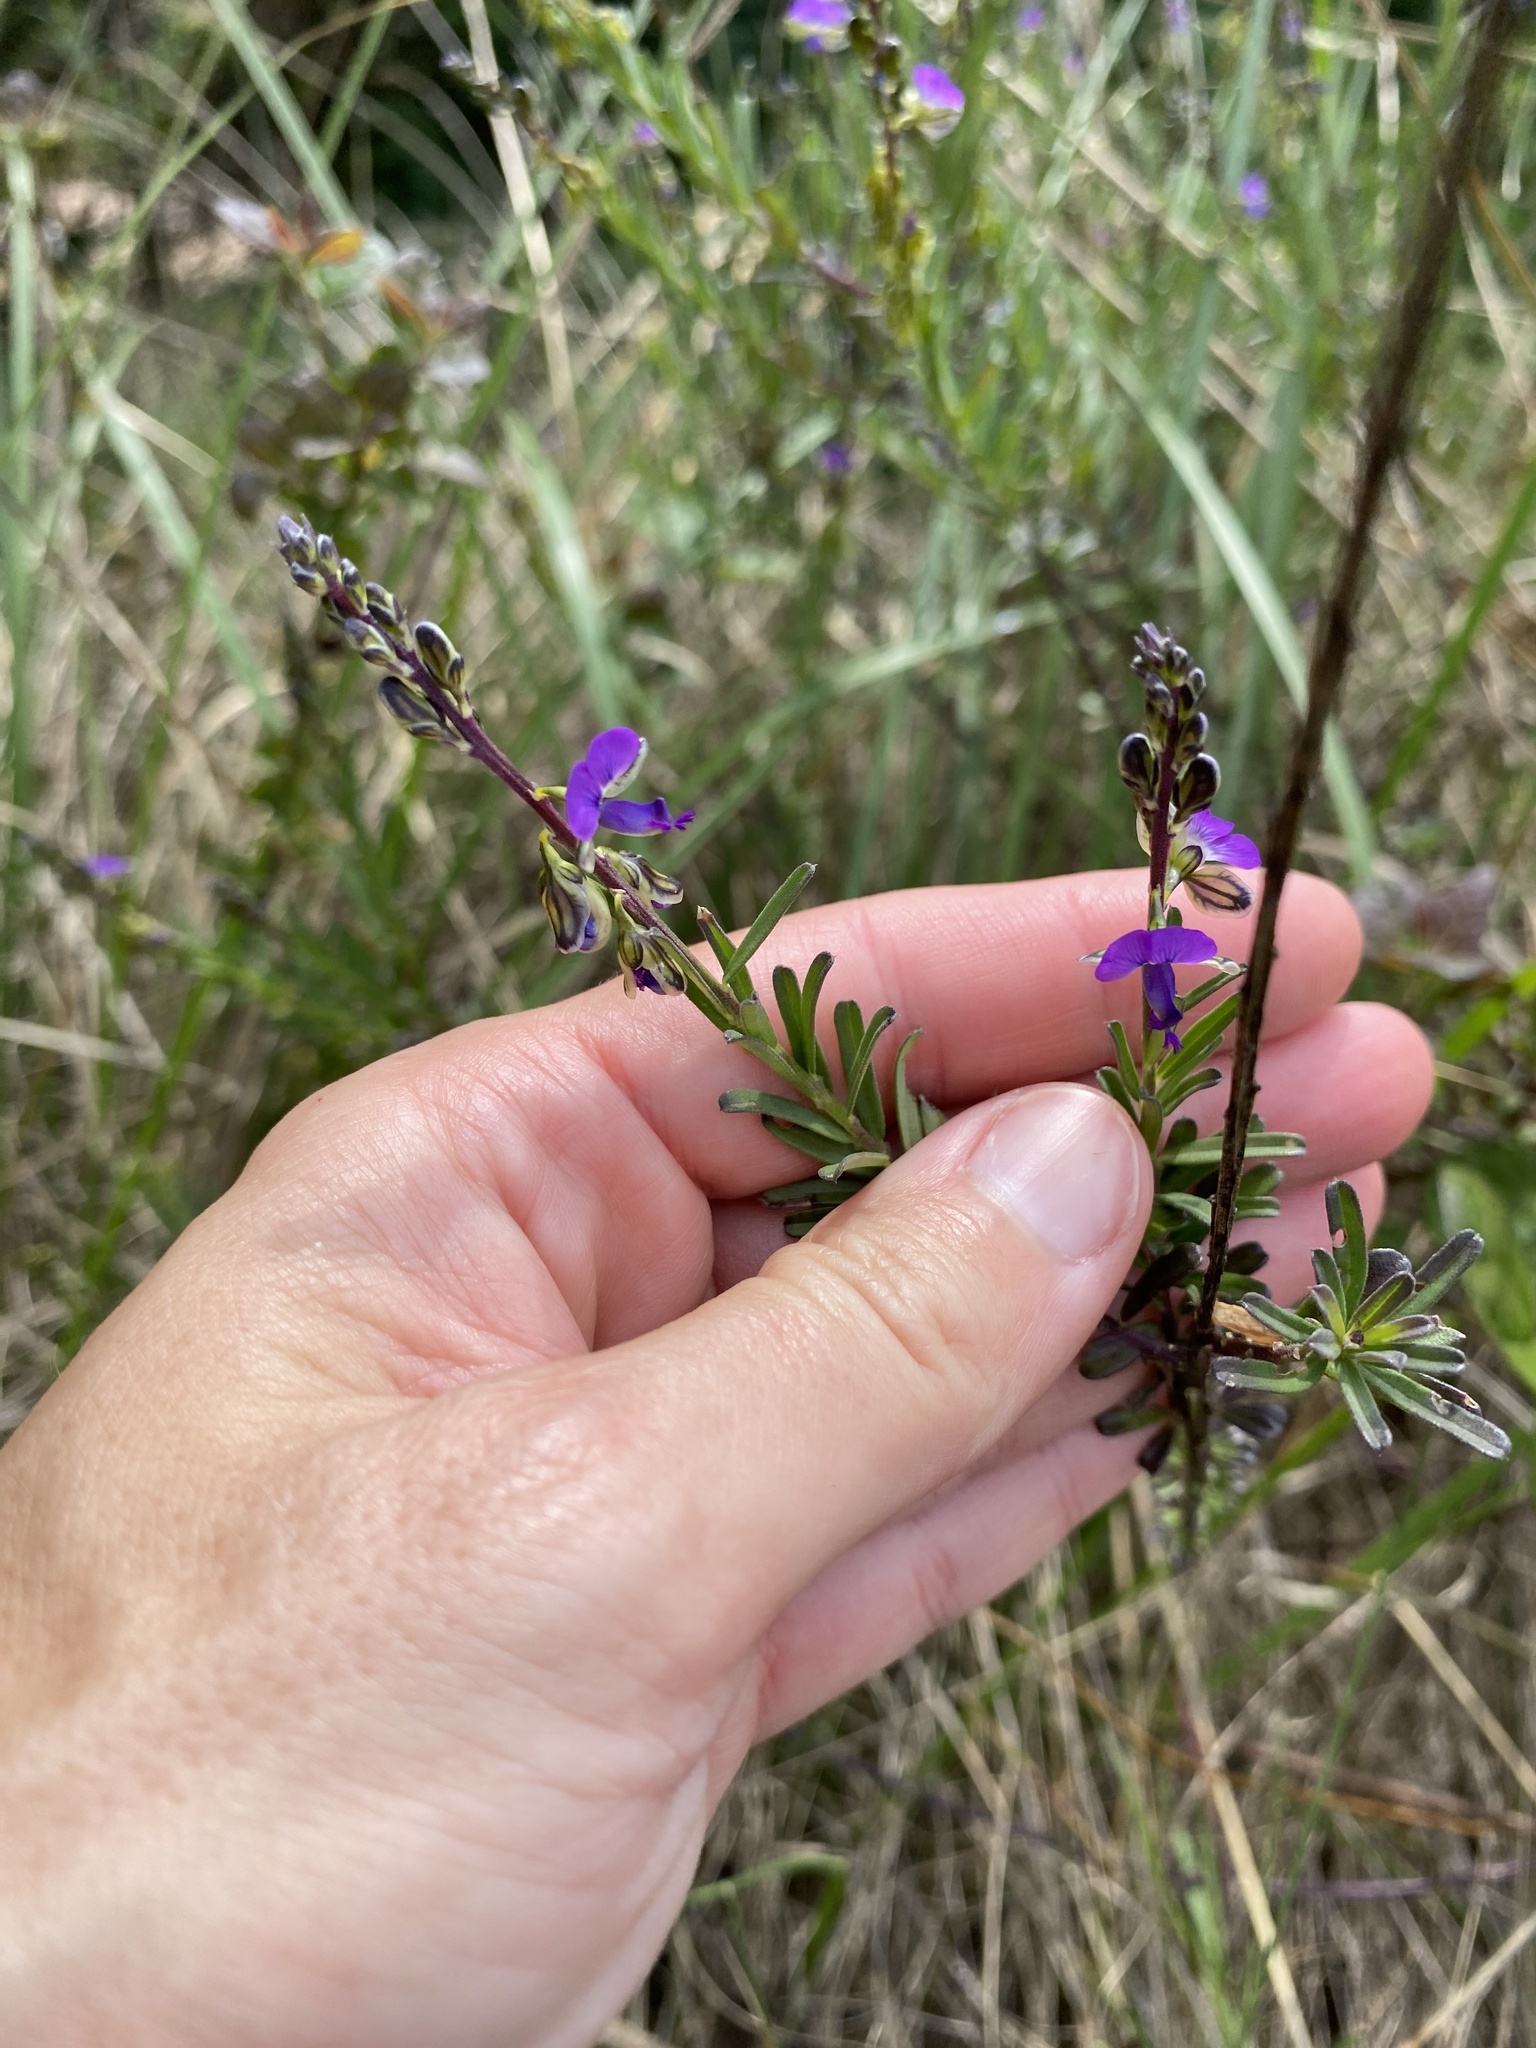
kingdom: Plantae
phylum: Tracheophyta
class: Magnoliopsida
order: Fabales
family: Polygalaceae
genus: Polygala
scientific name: Polygala uncinata
